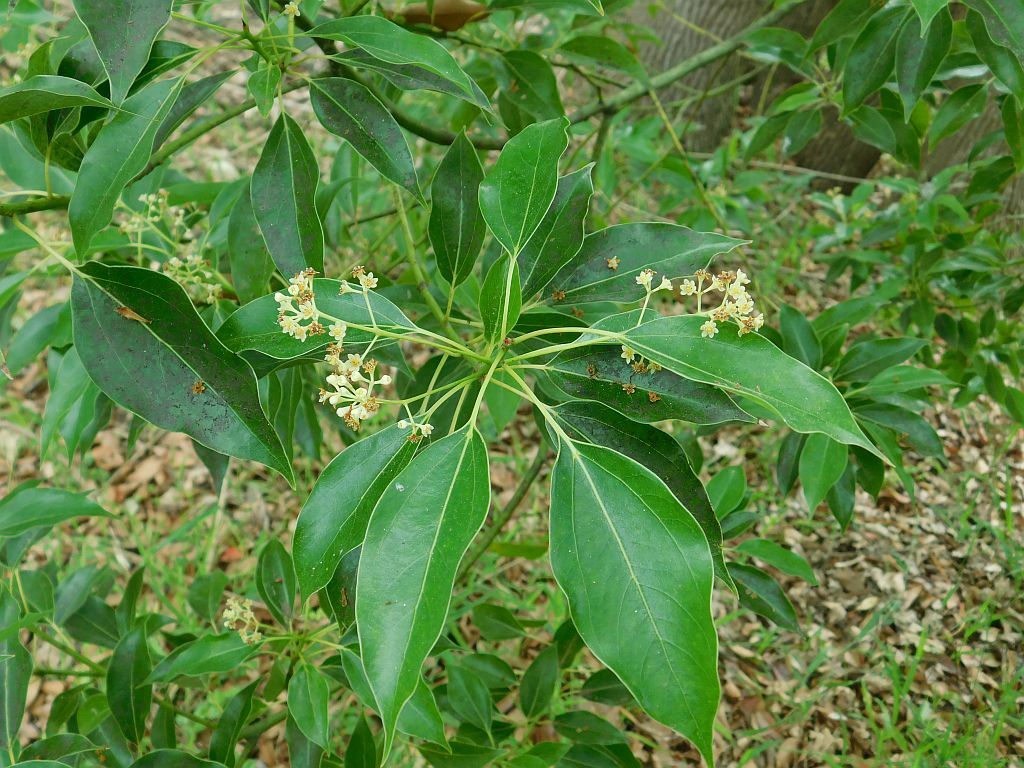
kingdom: Plantae
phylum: Tracheophyta
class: Magnoliopsida
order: Laurales
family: Lauraceae
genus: Cinnamomum
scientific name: Cinnamomum camphora
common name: Camphortree
